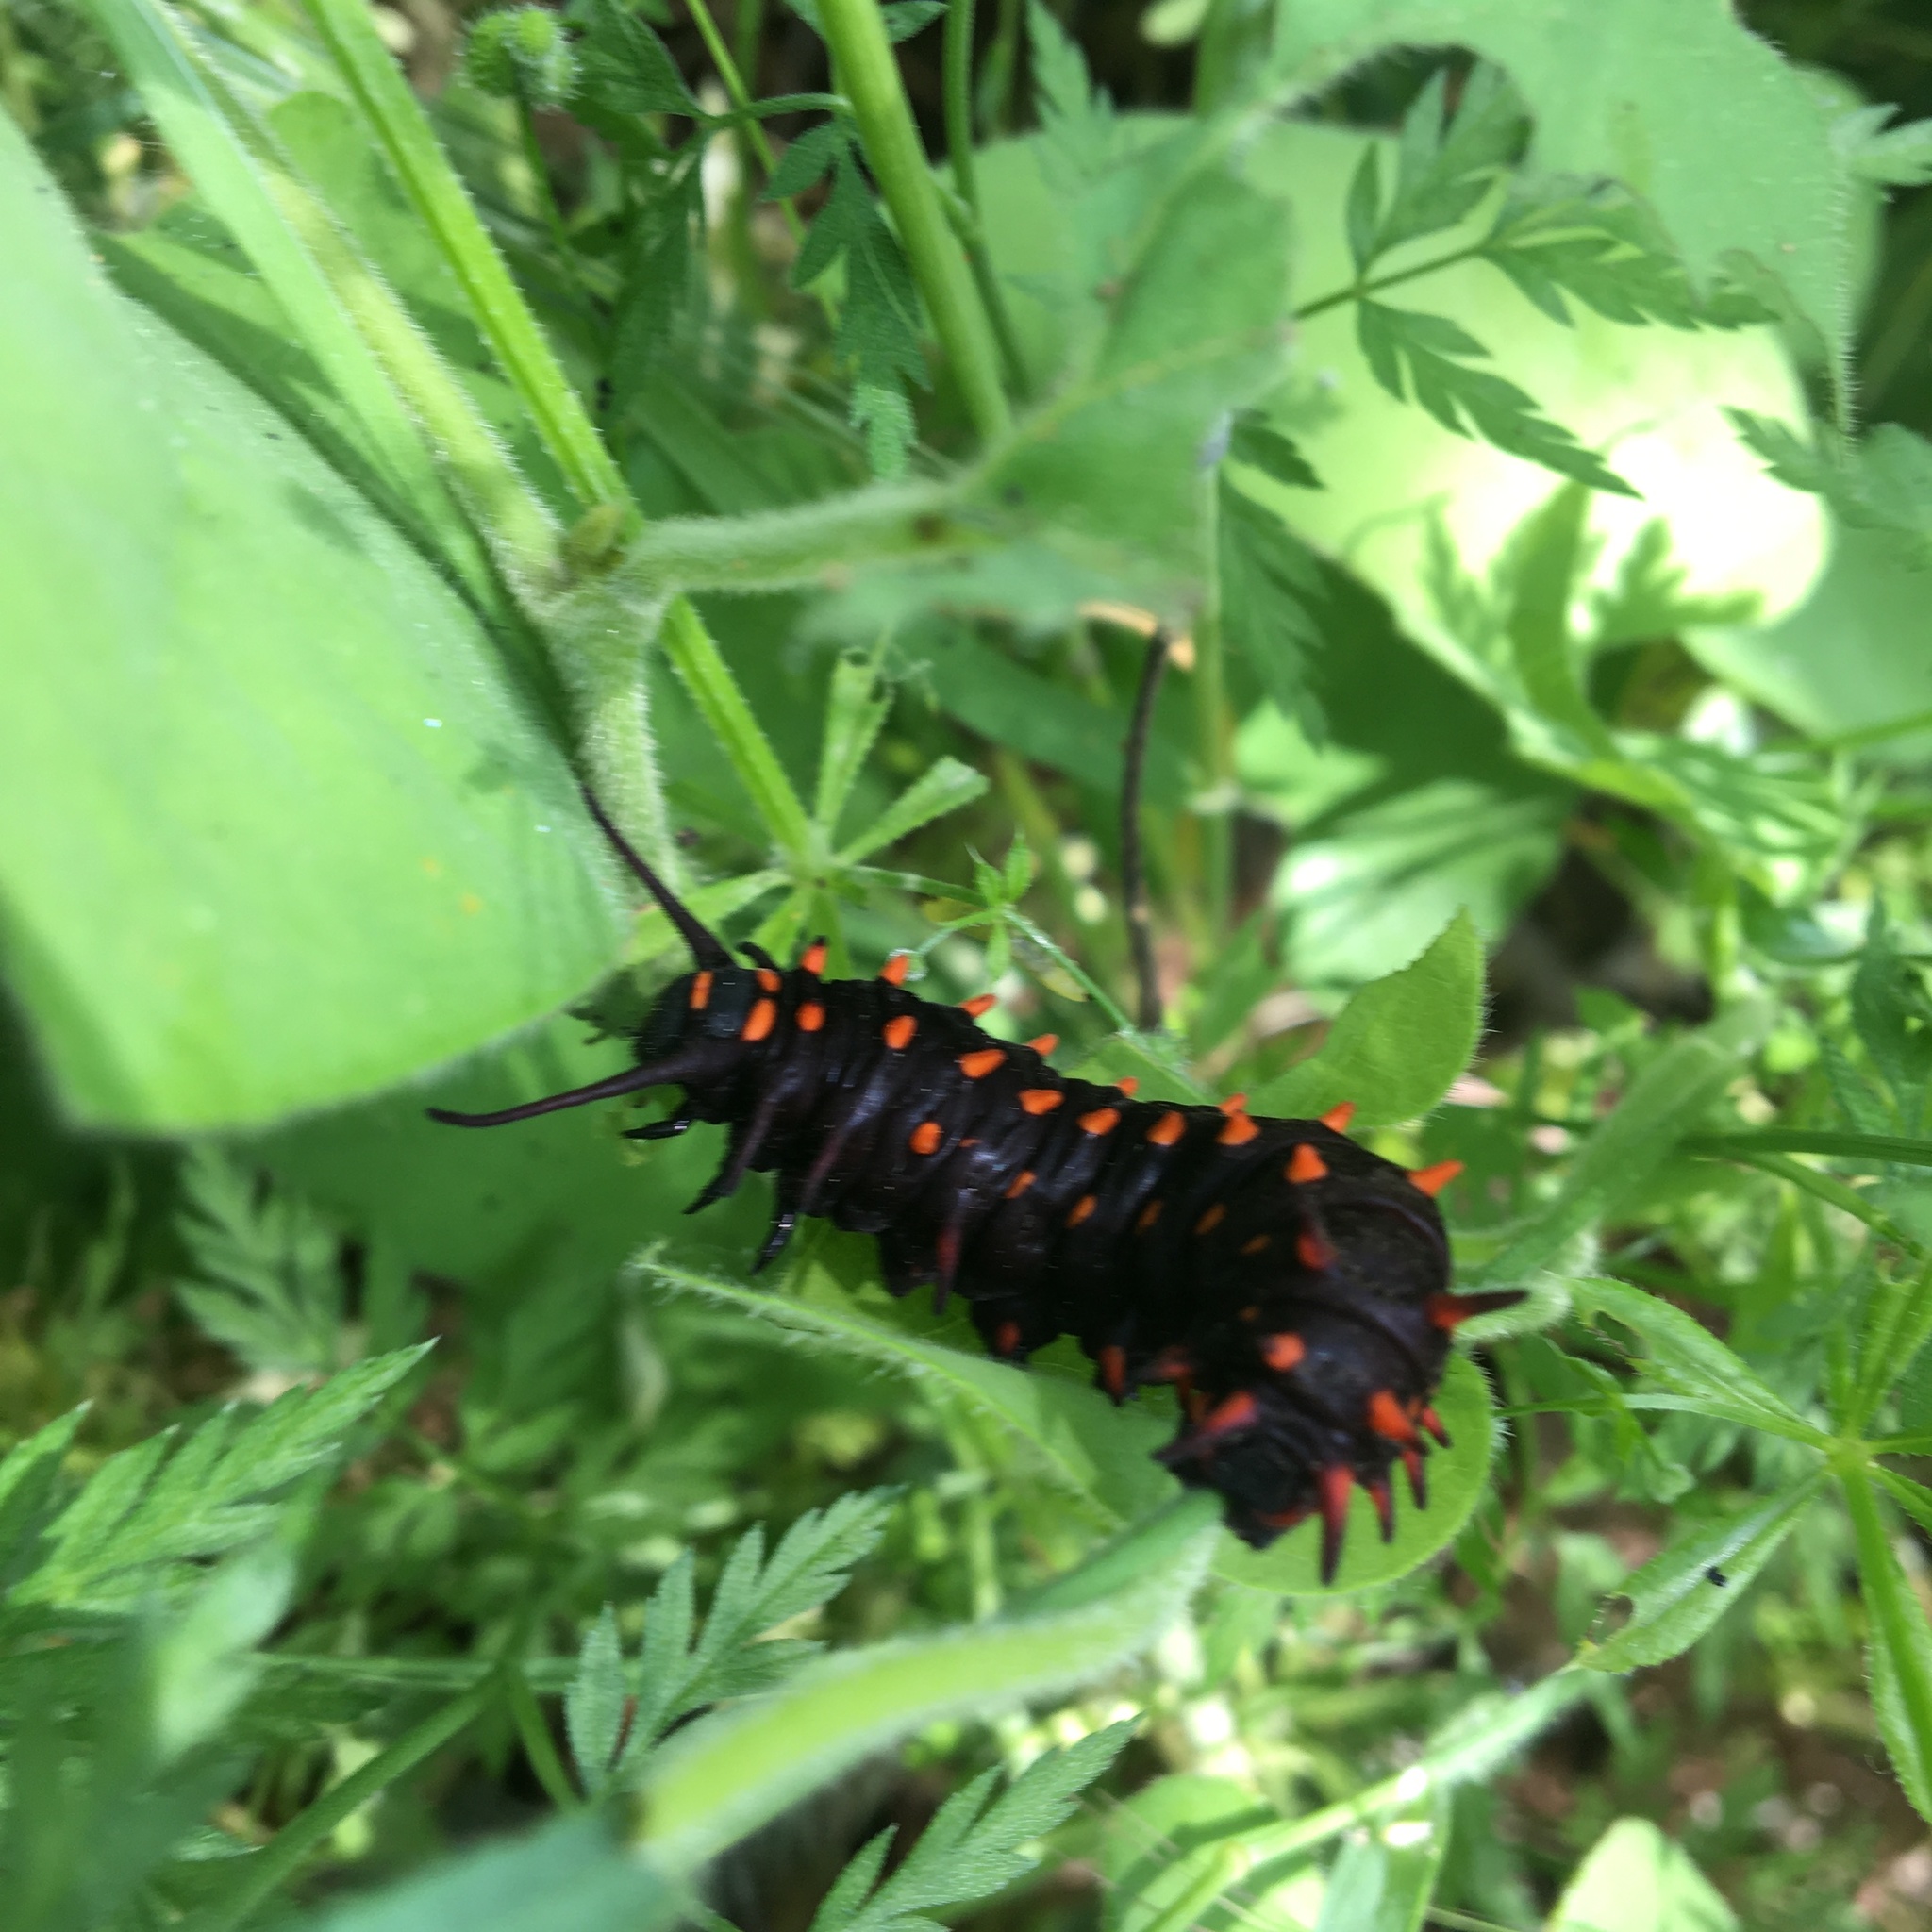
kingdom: Animalia
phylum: Arthropoda
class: Insecta
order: Lepidoptera
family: Papilionidae
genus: Battus
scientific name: Battus philenor
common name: Pipevine swallowtail
